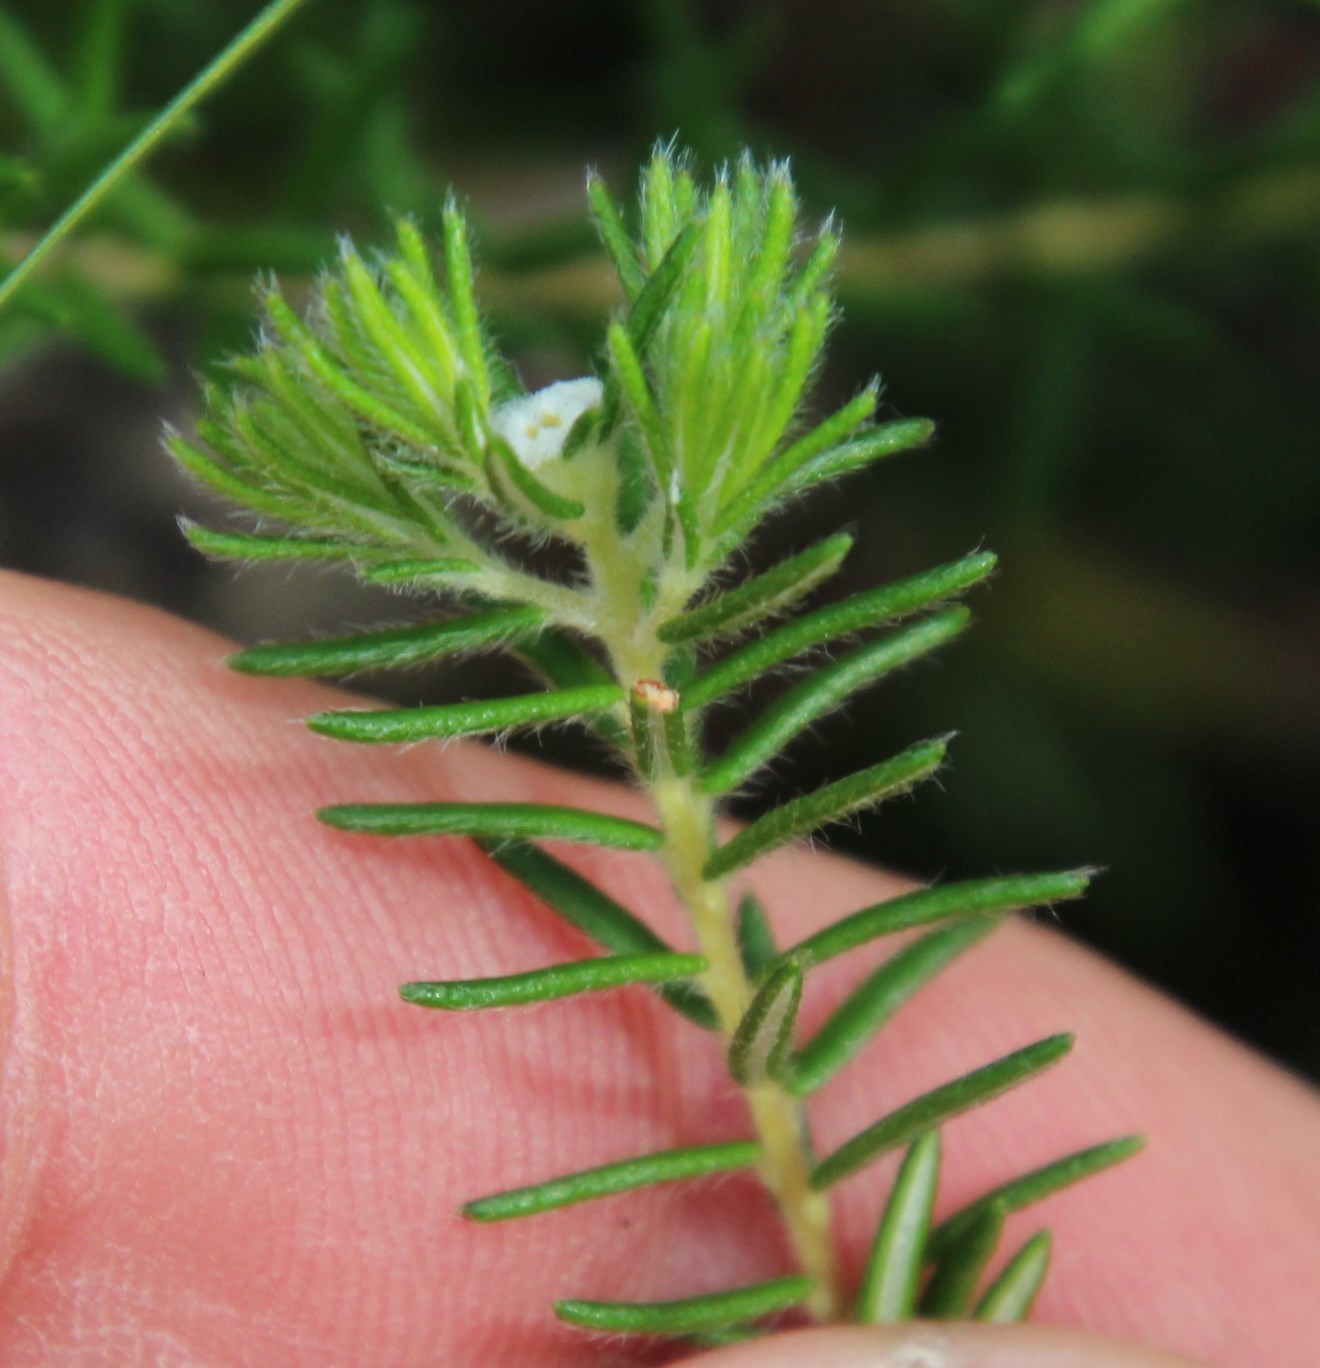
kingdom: Plantae
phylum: Tracheophyta
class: Magnoliopsida
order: Rosales
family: Rhamnaceae
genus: Phylica
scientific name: Phylica linifolia
